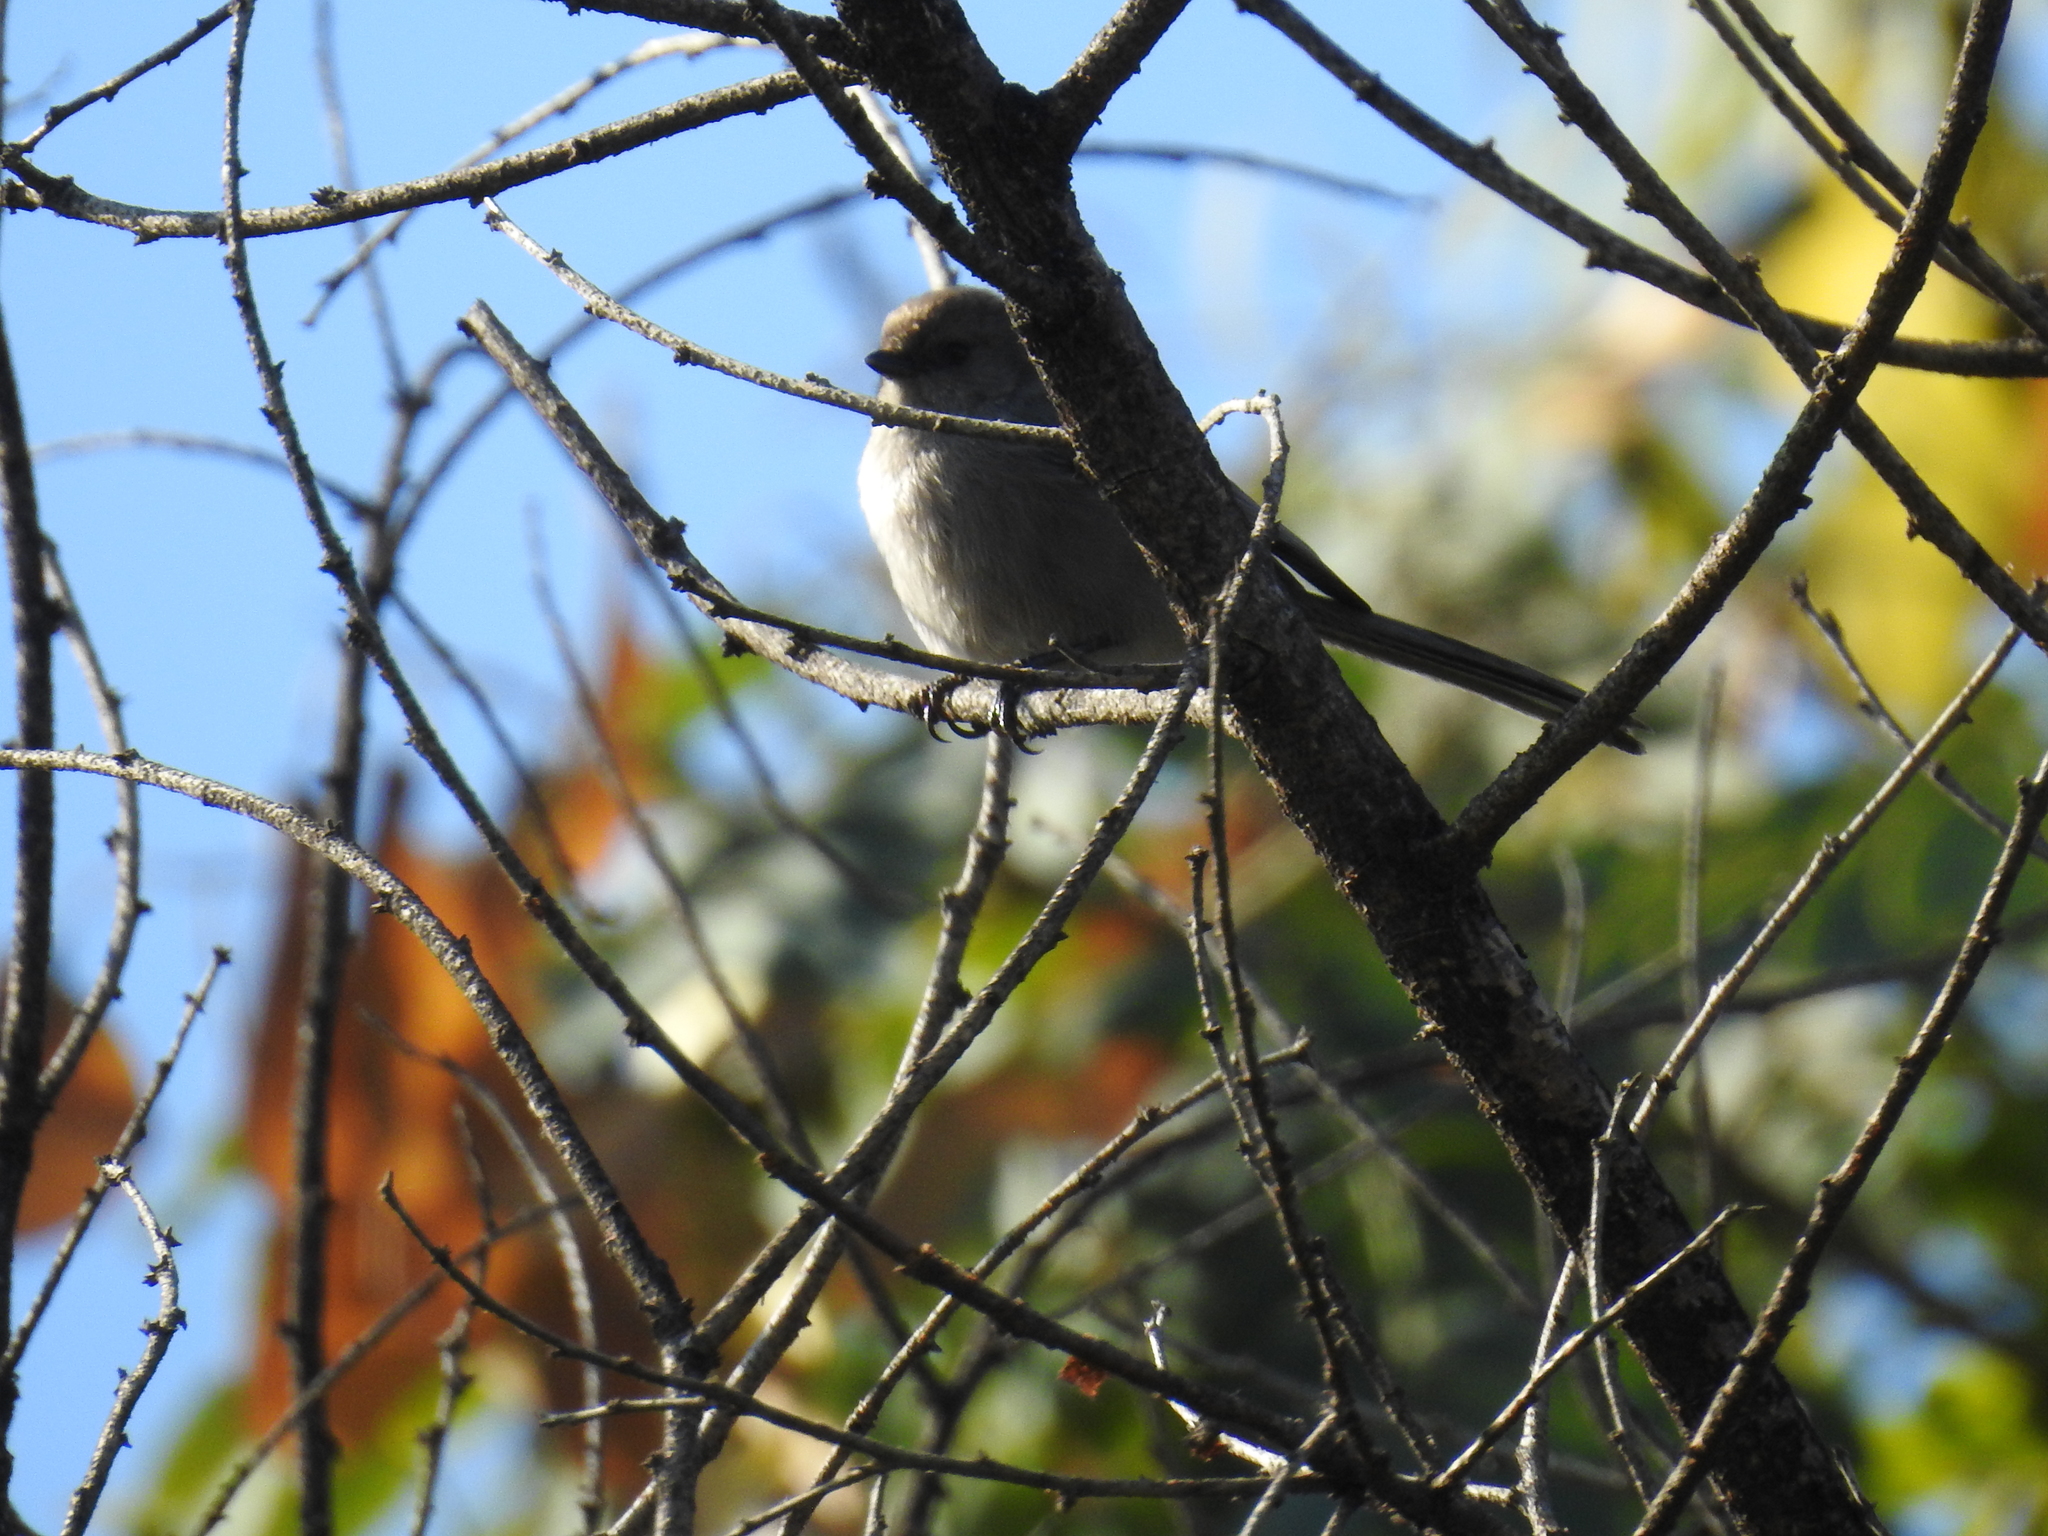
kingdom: Animalia
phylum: Chordata
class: Aves
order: Passeriformes
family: Aegithalidae
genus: Psaltriparus
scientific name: Psaltriparus minimus
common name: American bushtit
